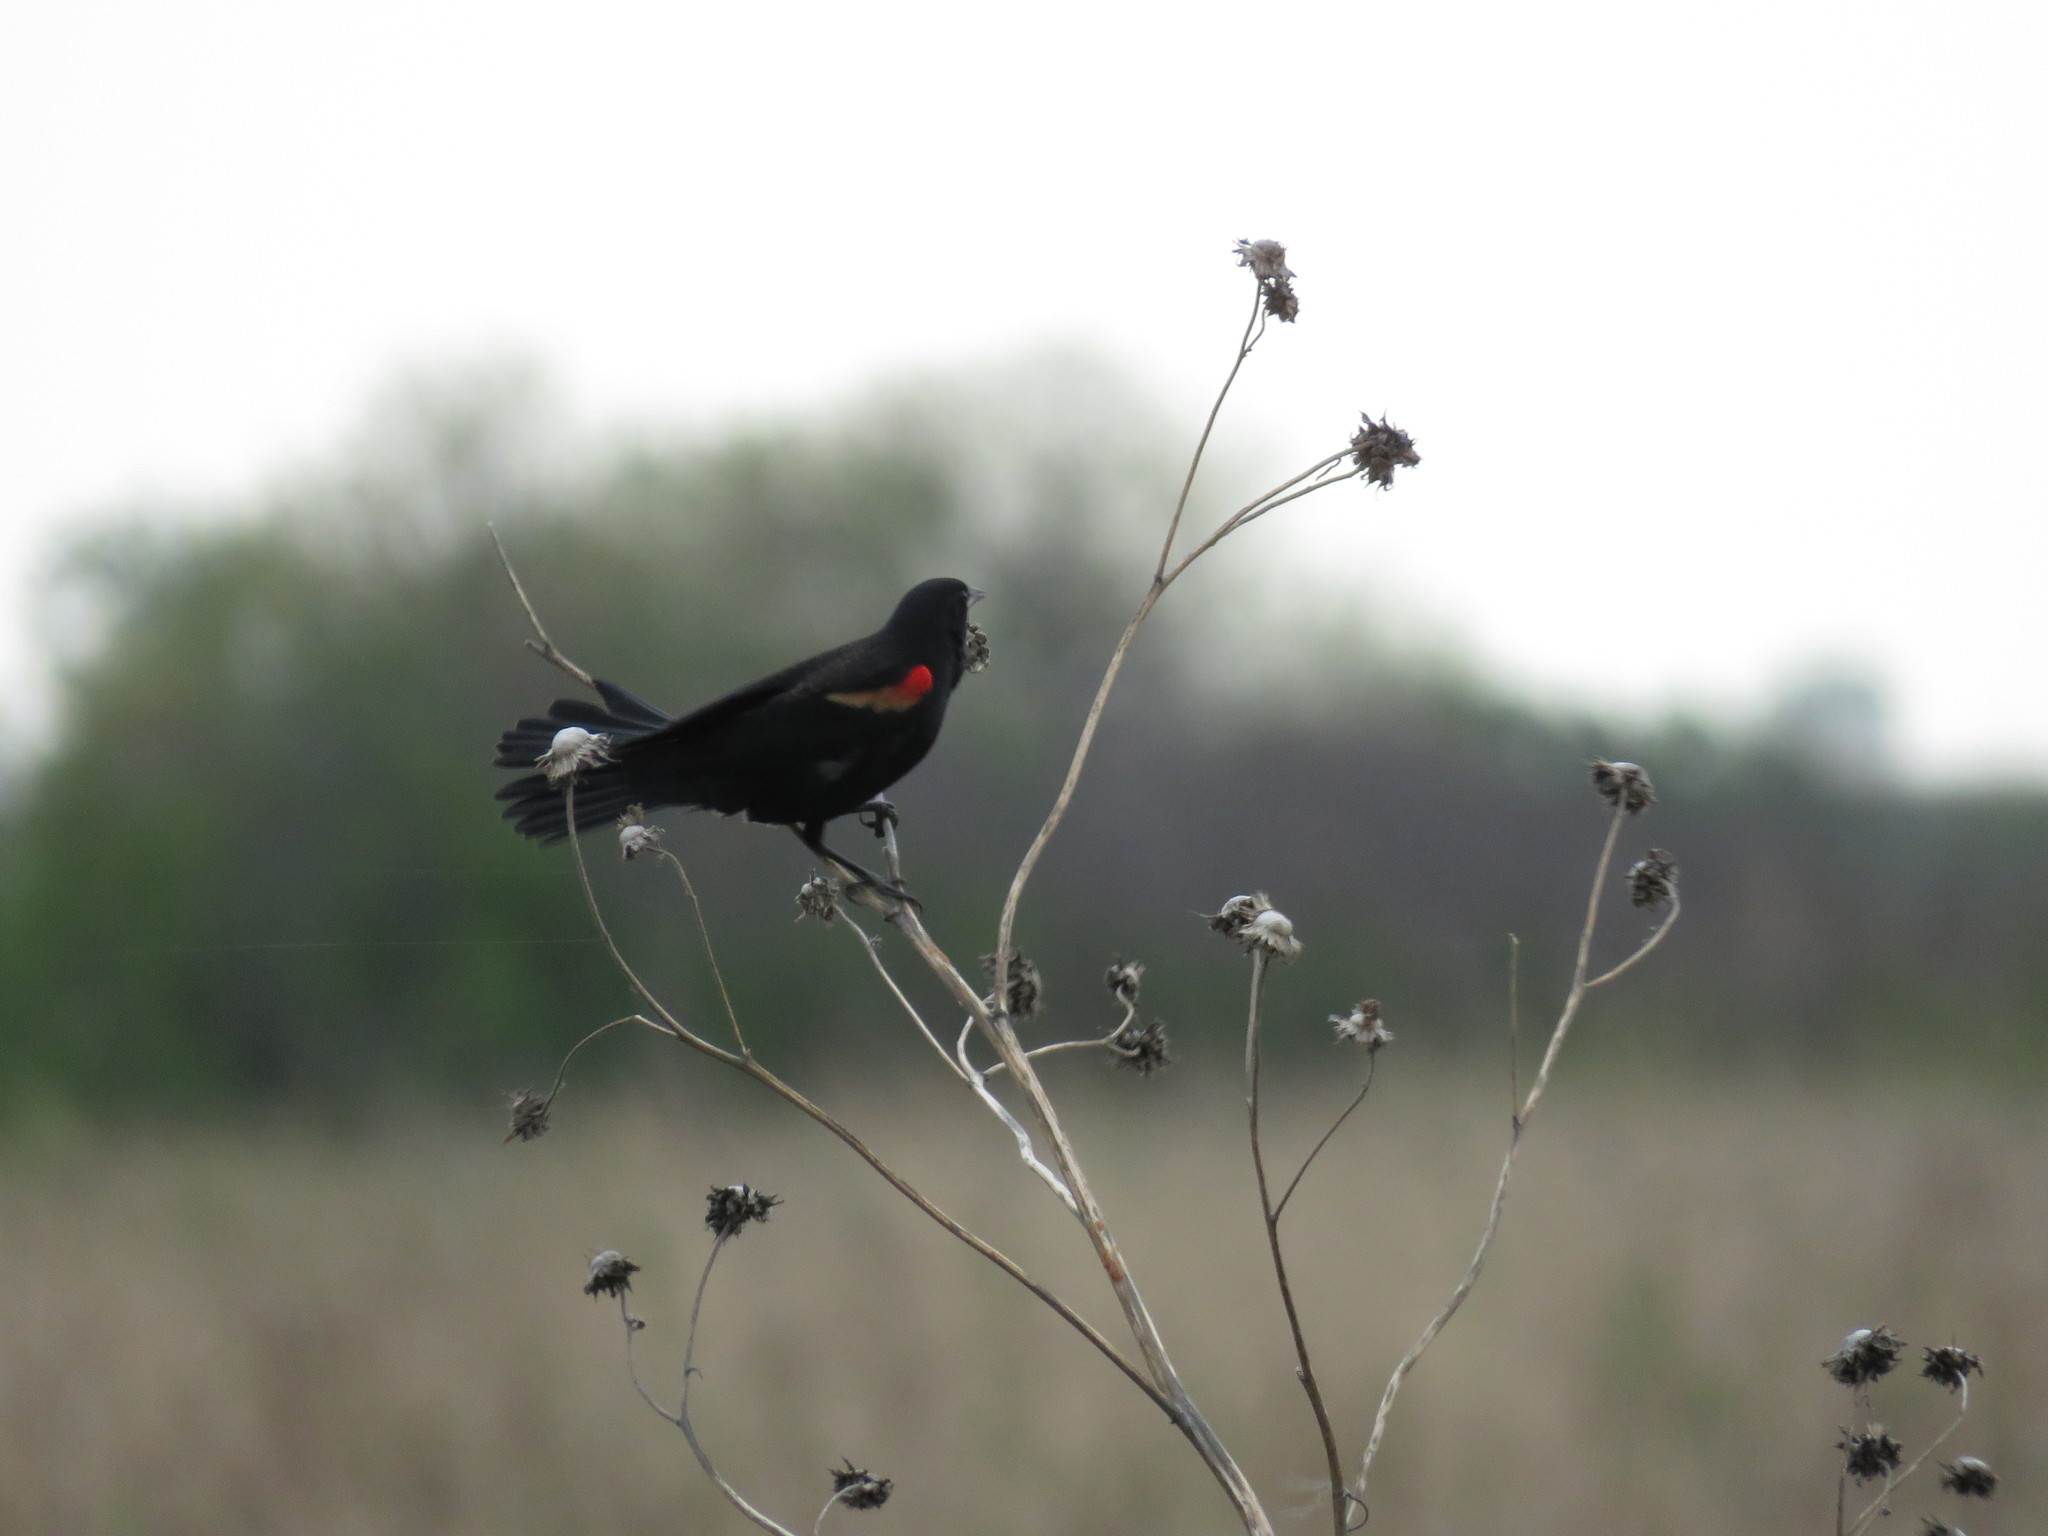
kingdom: Animalia
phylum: Chordata
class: Aves
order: Passeriformes
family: Icteridae
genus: Agelaius
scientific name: Agelaius phoeniceus
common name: Red-winged blackbird
